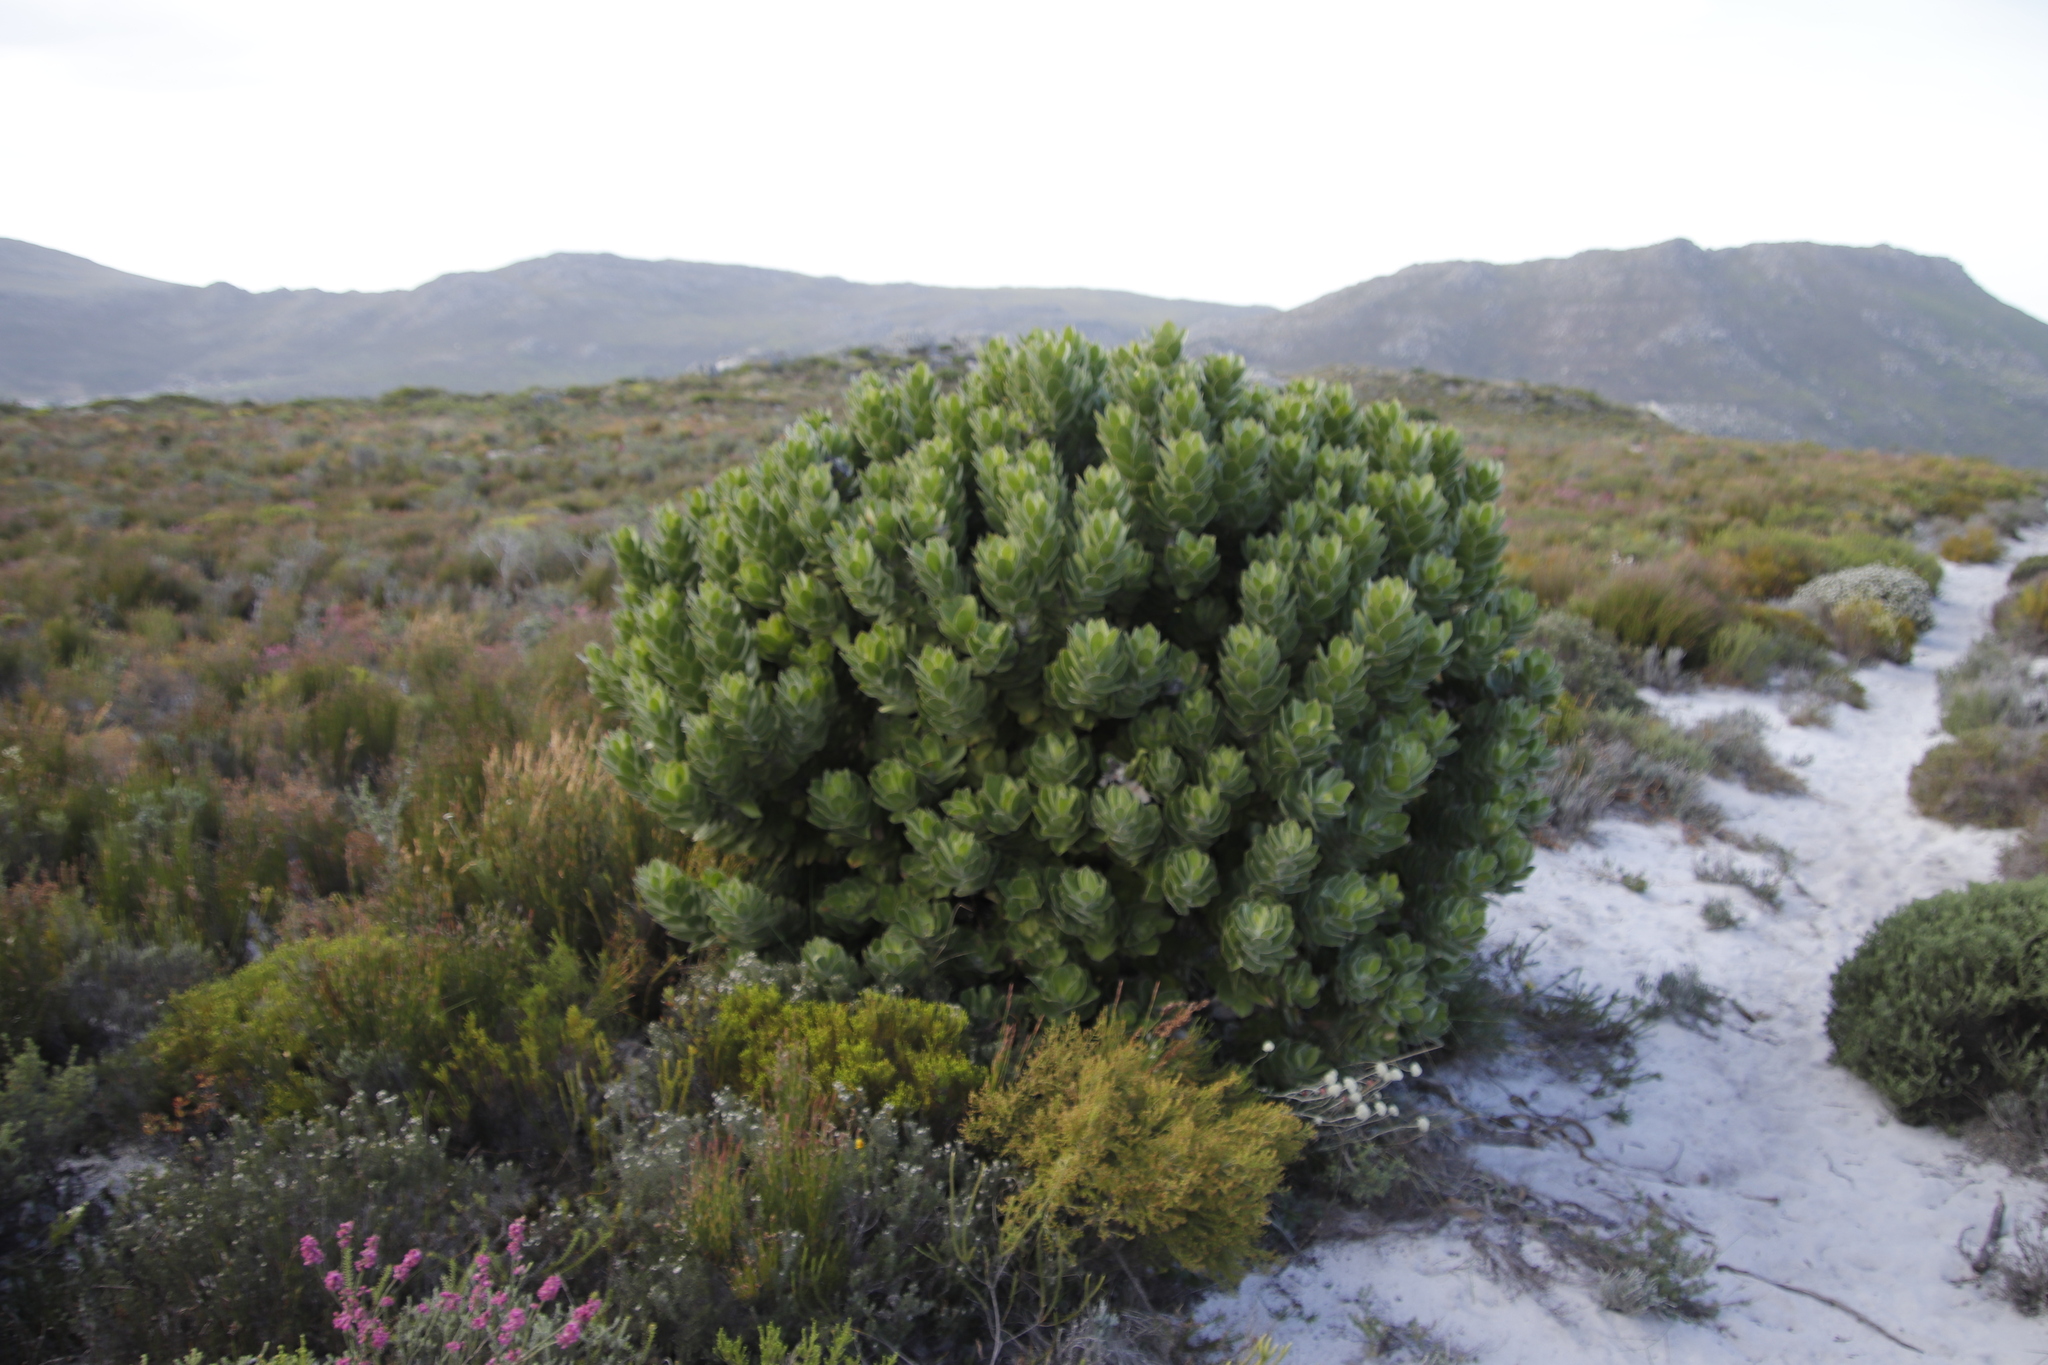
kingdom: Plantae
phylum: Tracheophyta
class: Magnoliopsida
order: Proteales
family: Proteaceae
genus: Leucospermum
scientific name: Leucospermum conocarpodendron
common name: Tree pincushion
